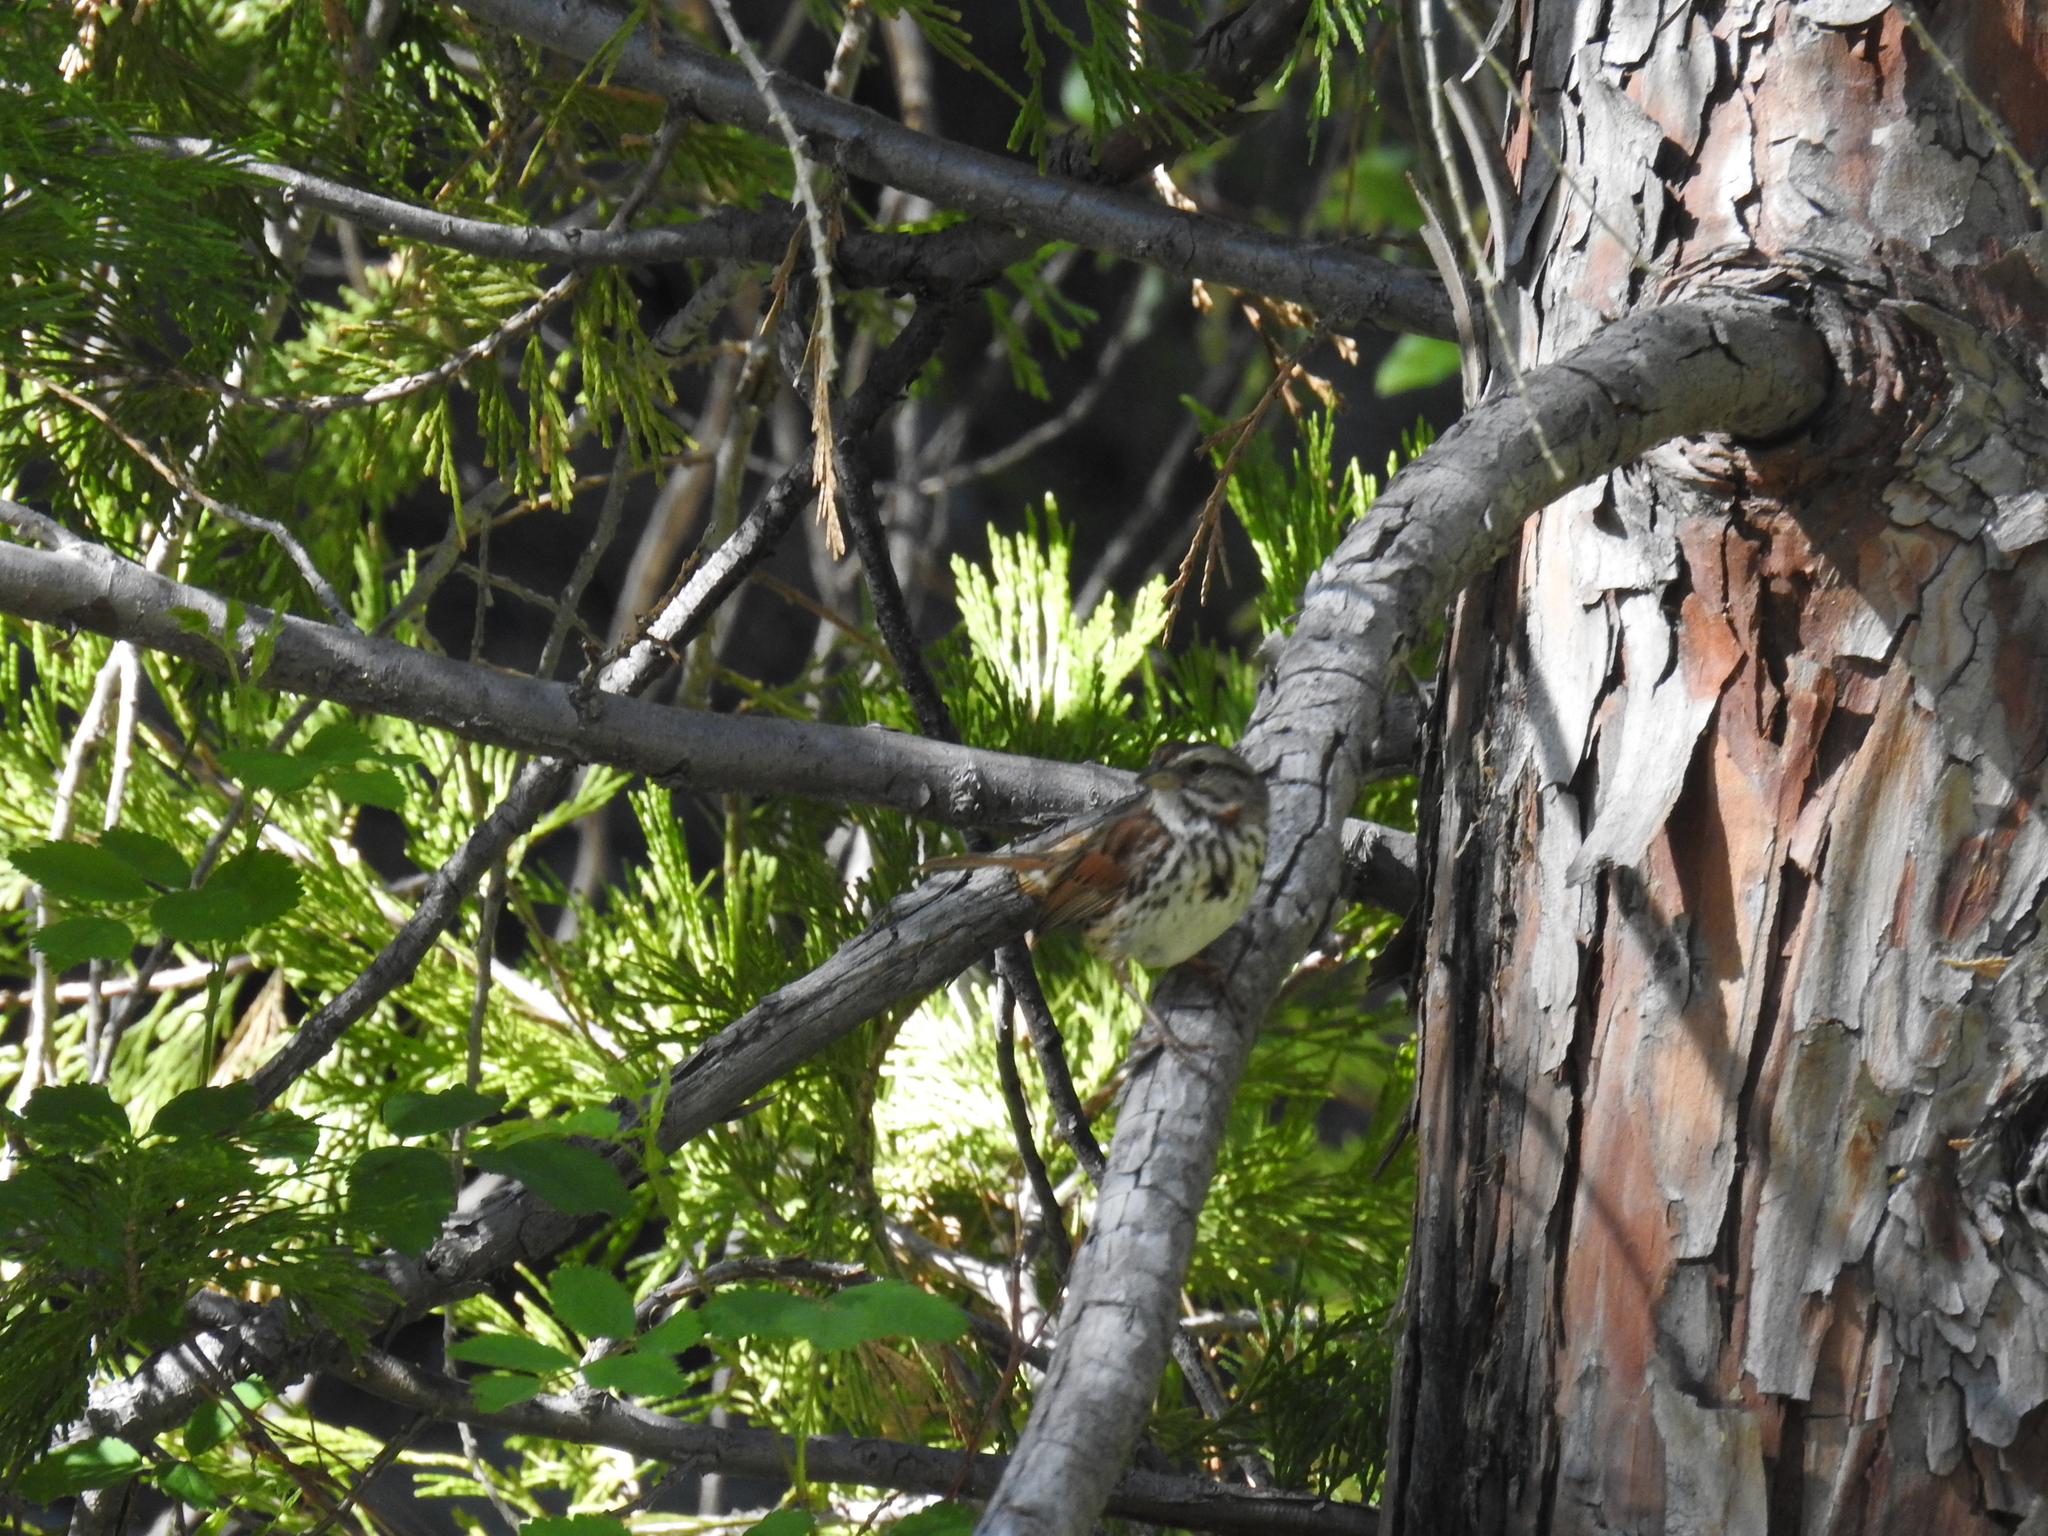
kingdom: Animalia
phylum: Chordata
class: Aves
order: Passeriformes
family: Passerellidae
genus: Melospiza
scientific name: Melospiza melodia
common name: Song sparrow
